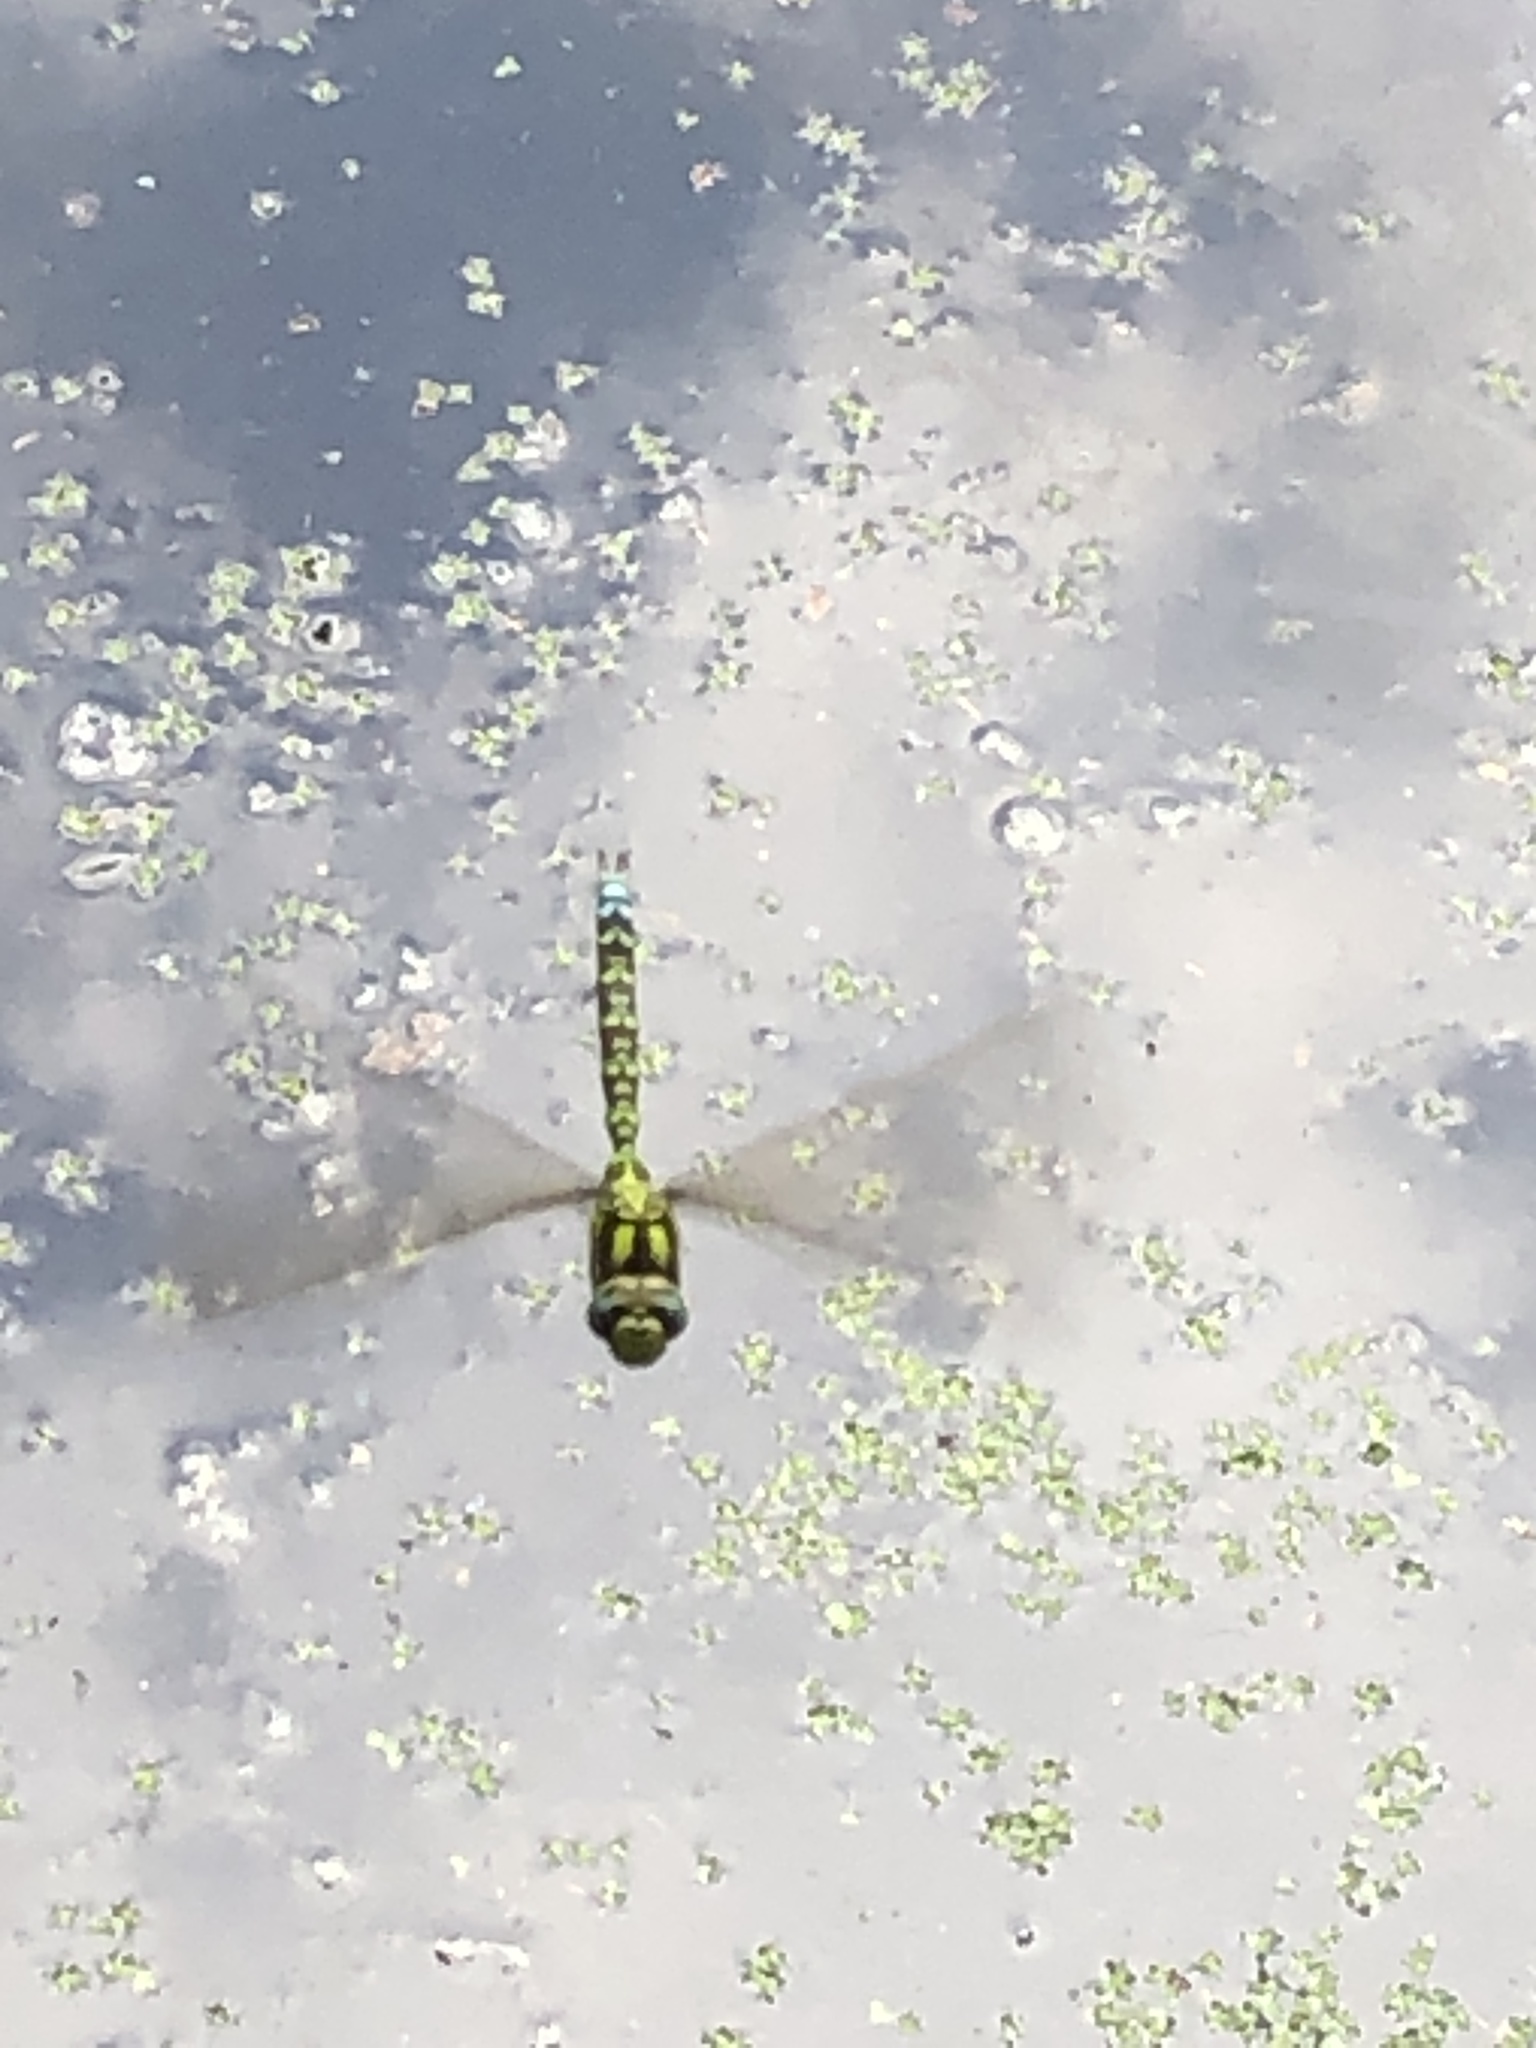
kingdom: Animalia
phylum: Arthropoda
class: Insecta
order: Odonata
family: Aeshnidae
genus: Aeshna
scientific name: Aeshna cyanea
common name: Southern hawker
